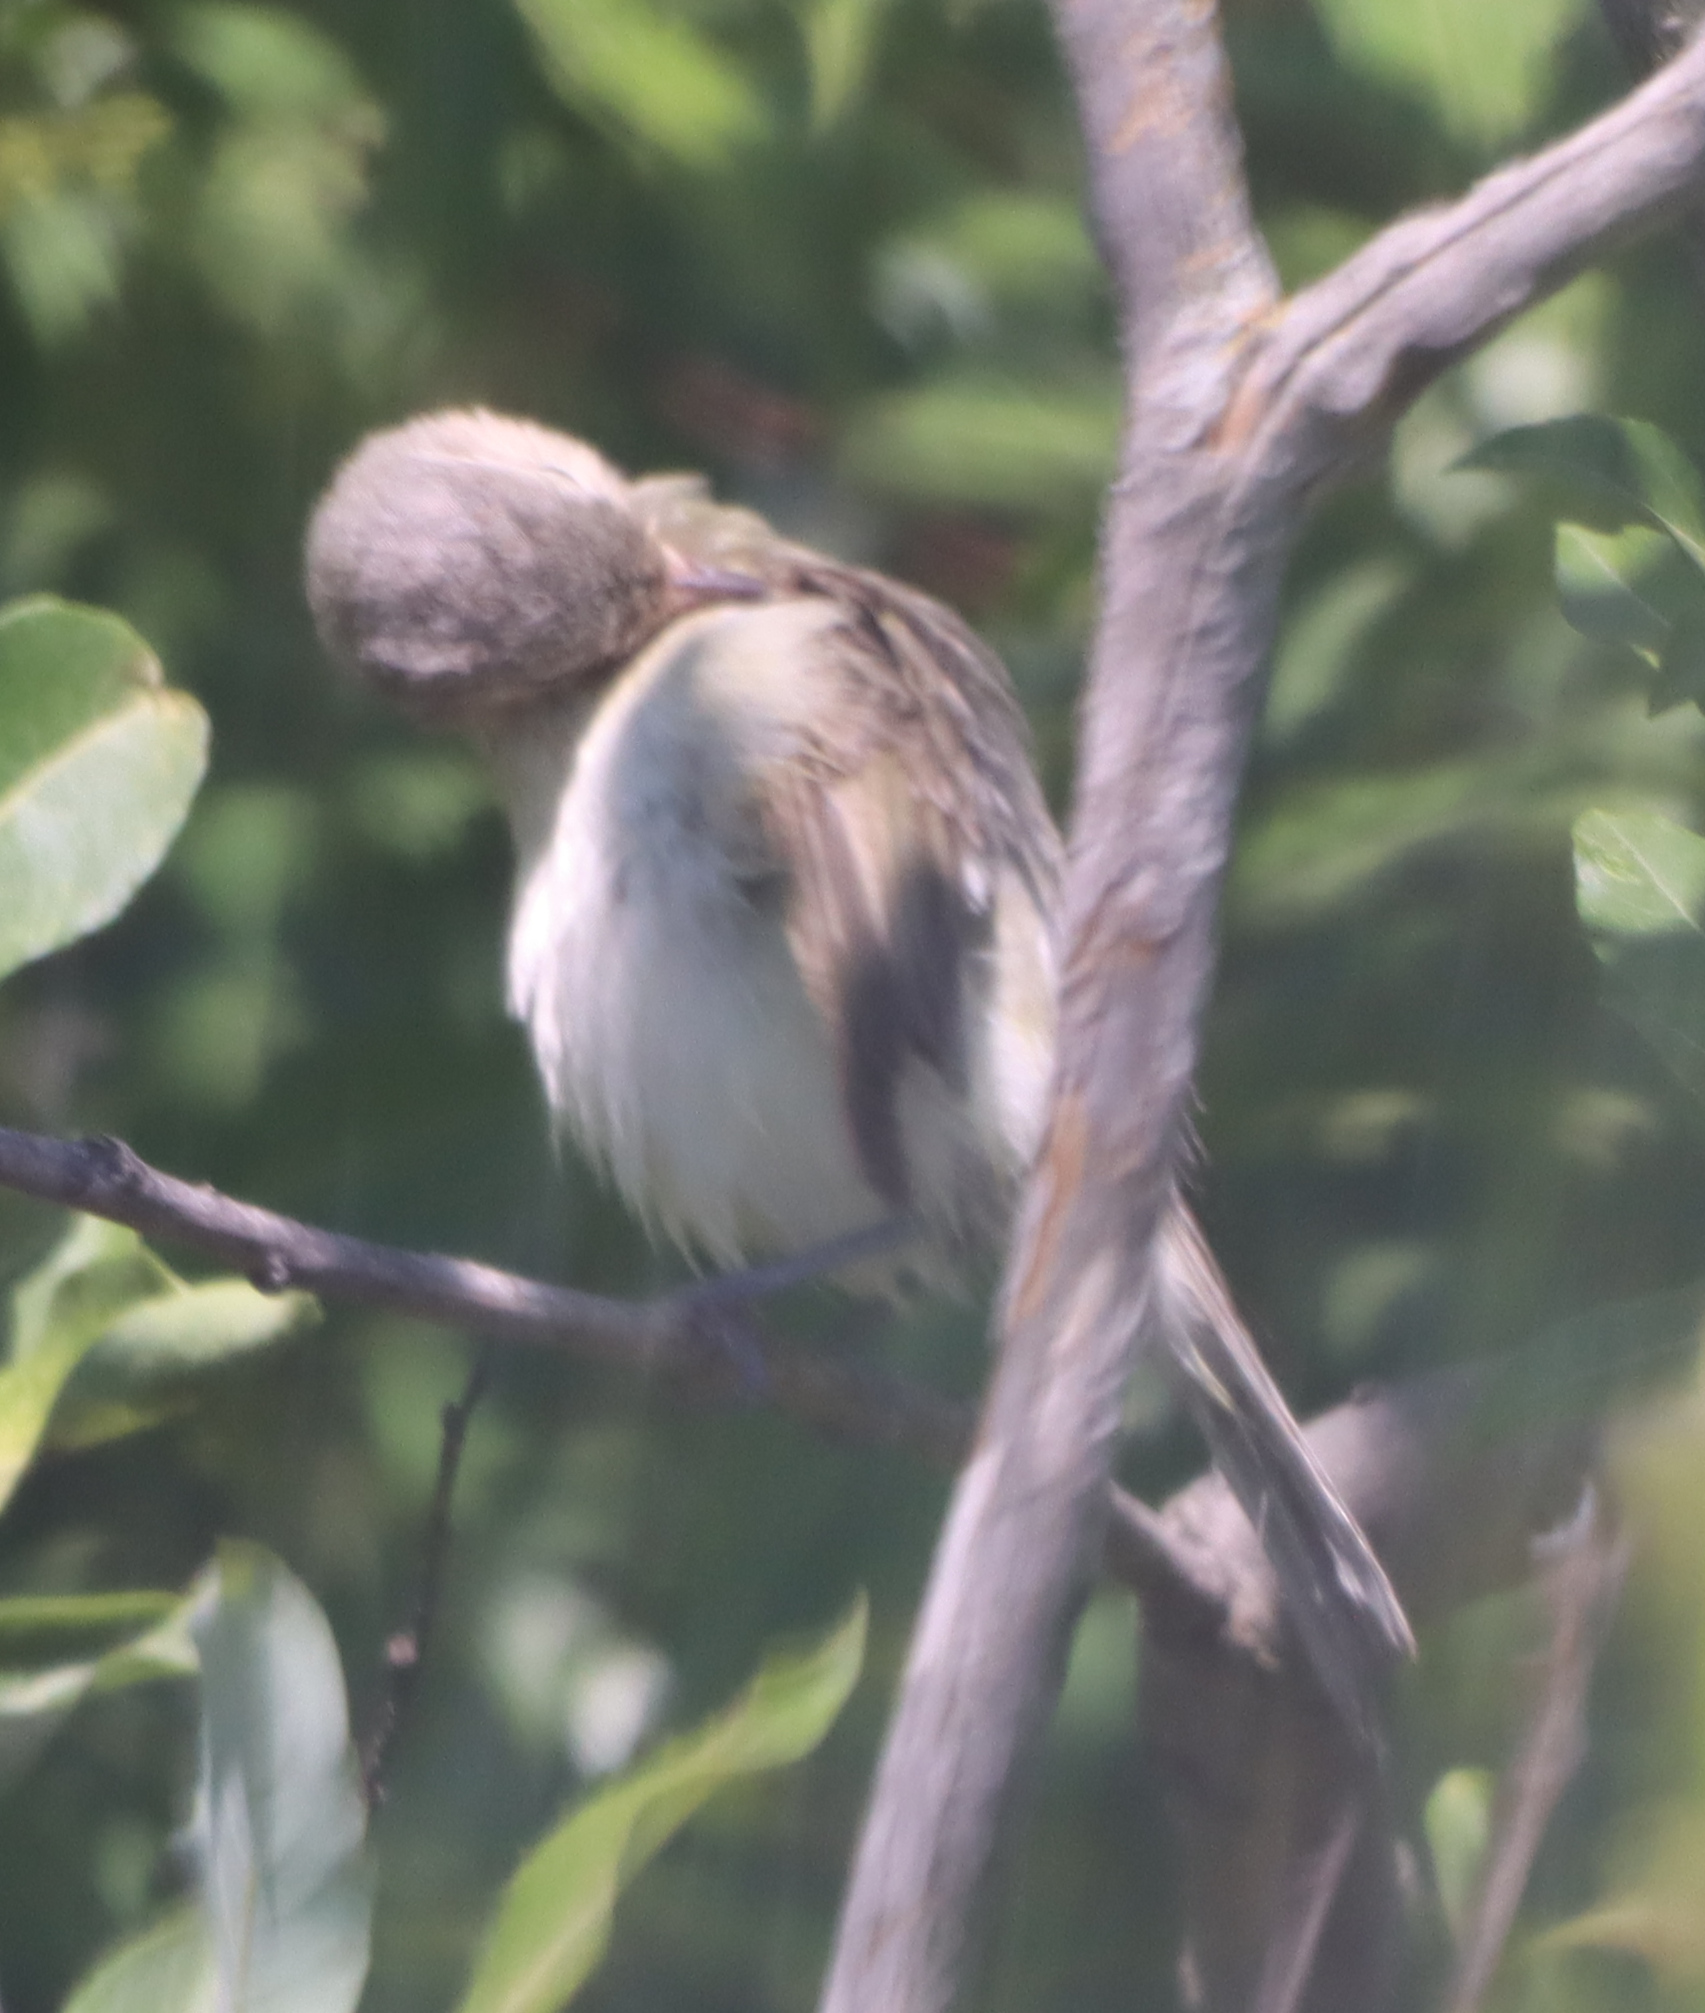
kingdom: Animalia
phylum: Chordata
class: Aves
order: Passeriformes
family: Vireonidae
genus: Vireo
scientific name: Vireo gilvus
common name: Warbling vireo
